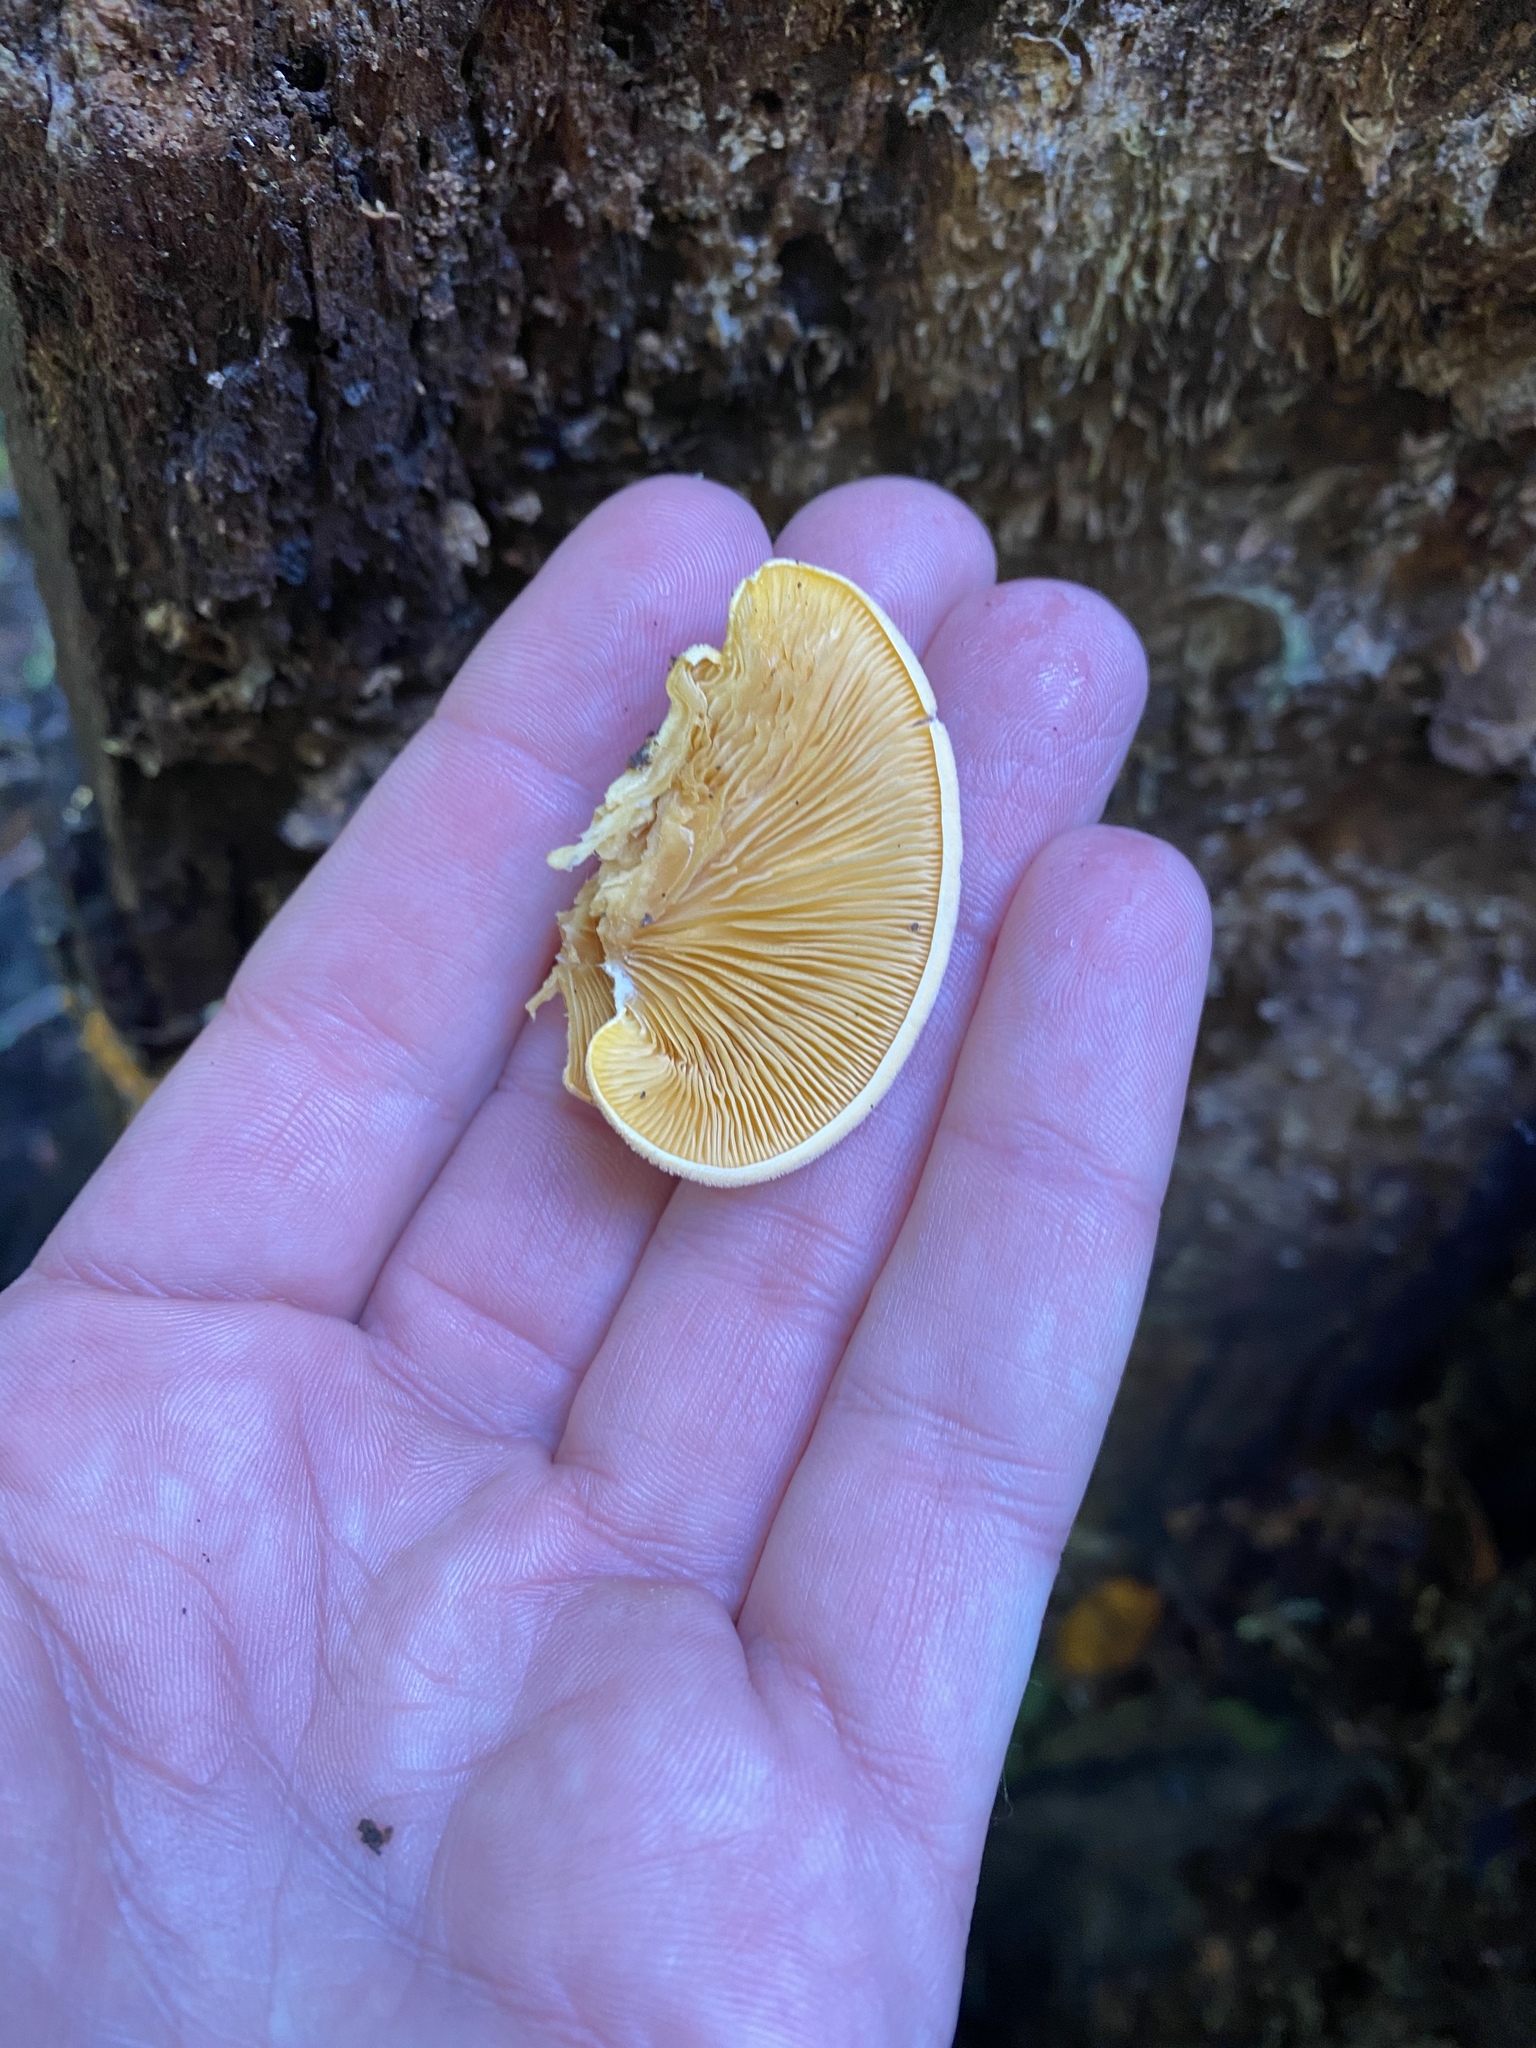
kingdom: Fungi
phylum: Basidiomycota
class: Agaricomycetes
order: Agaricales
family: Phyllotopsidaceae
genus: Phyllotopsis
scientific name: Phyllotopsis nidulans
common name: Orange mock oyster
